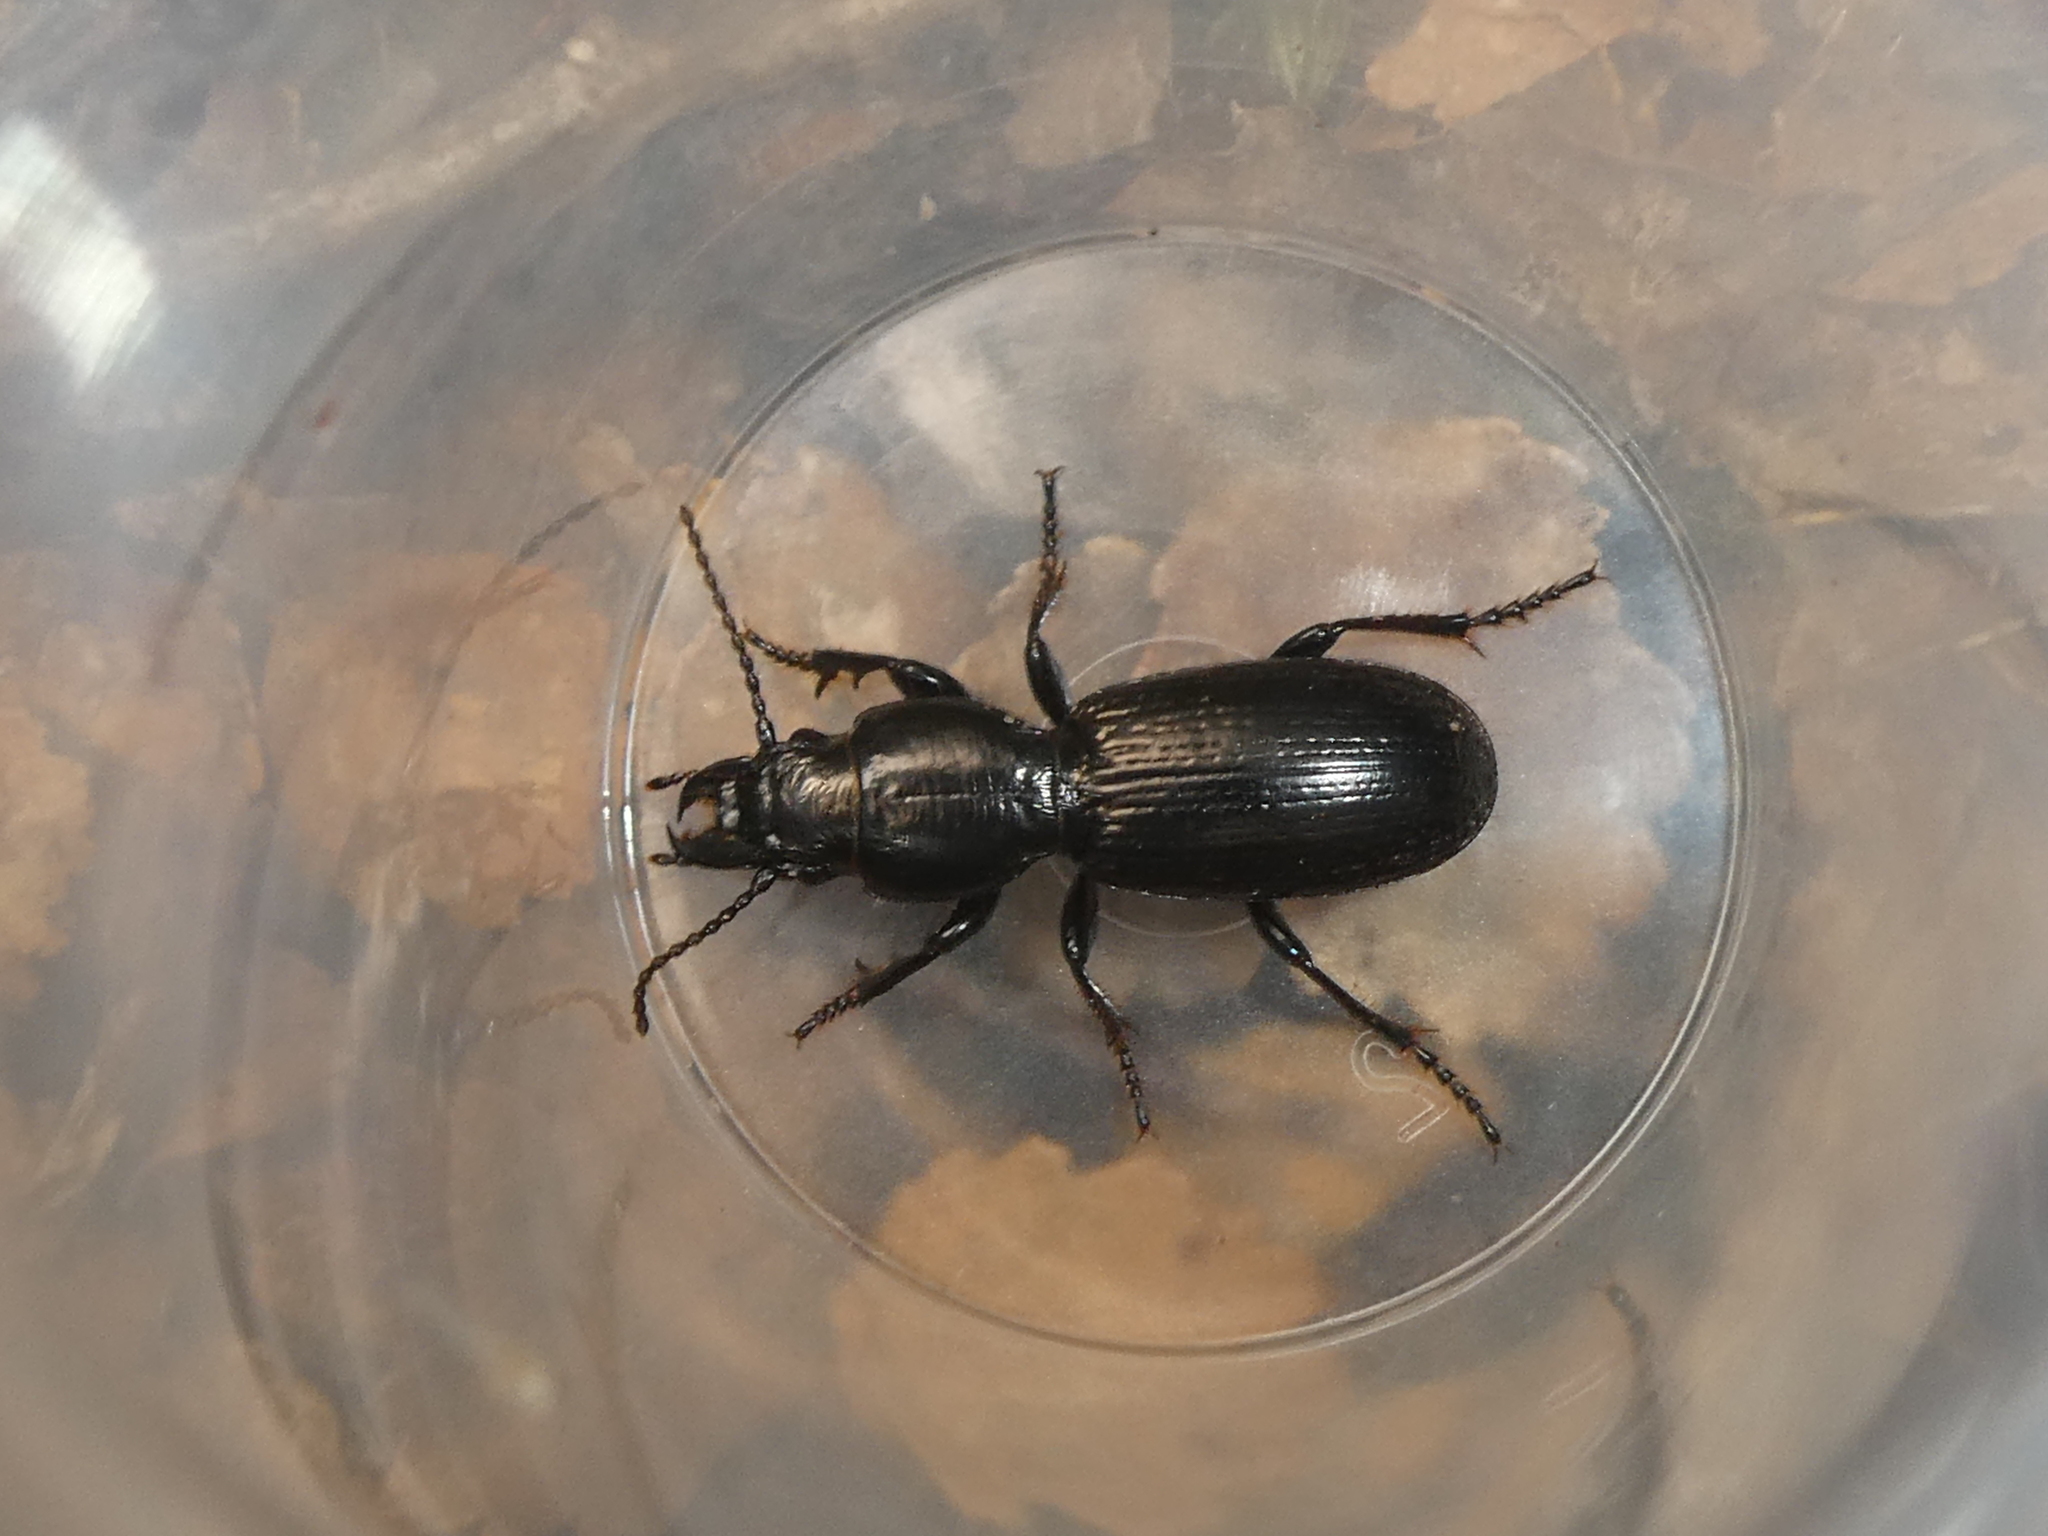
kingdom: Animalia
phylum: Arthropoda
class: Insecta
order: Coleoptera
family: Carabidae
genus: Mecodema
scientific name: Mecodema strictum
